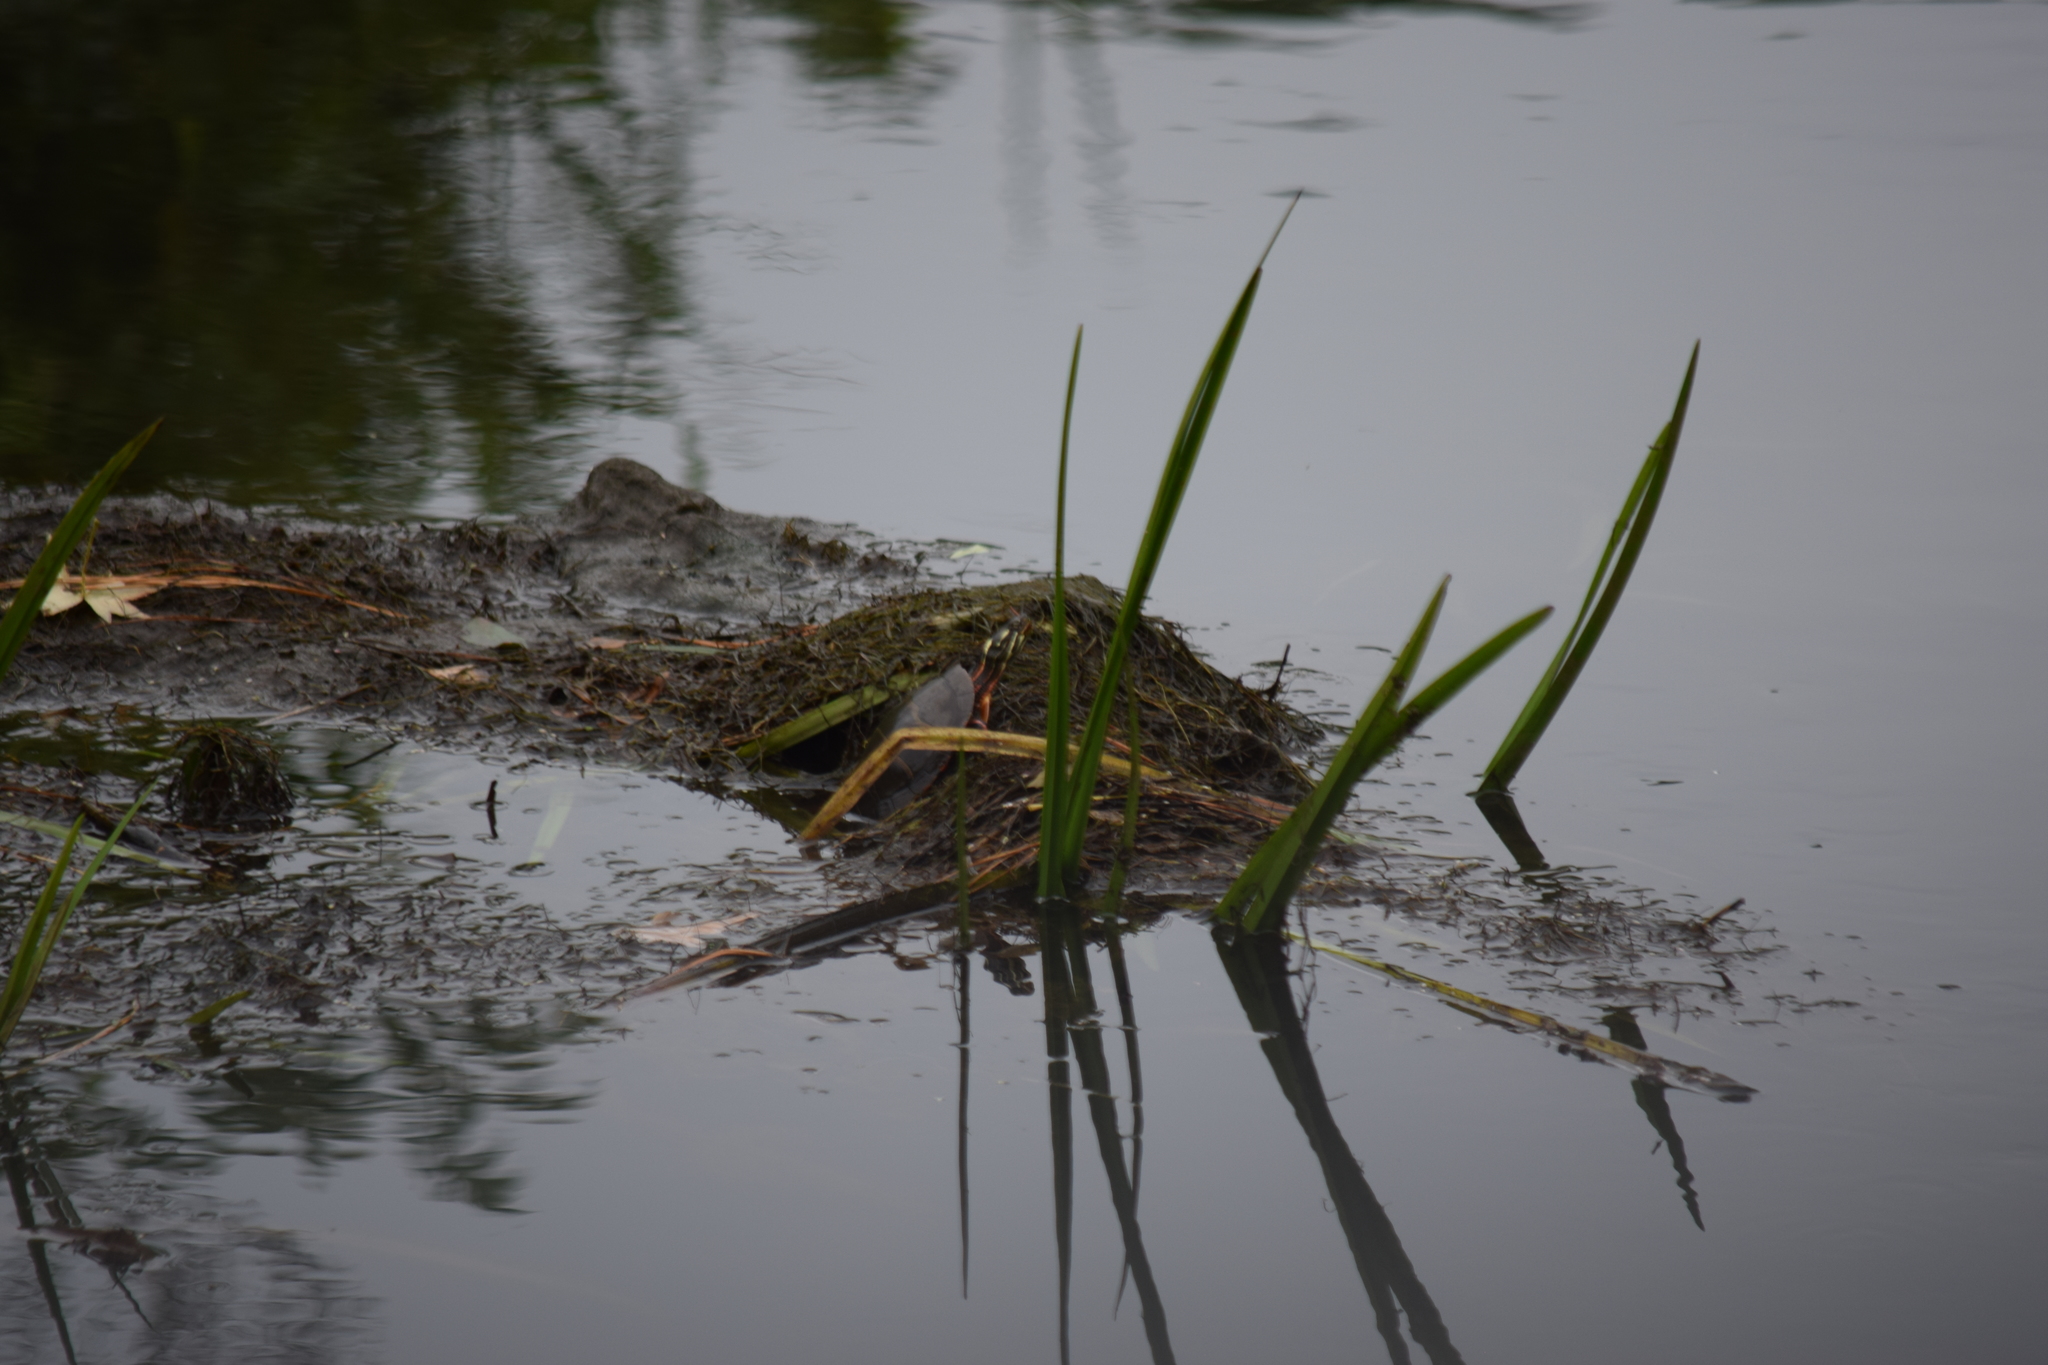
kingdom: Animalia
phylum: Chordata
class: Testudines
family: Emydidae
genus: Chrysemys
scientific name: Chrysemys picta
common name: Painted turtle
